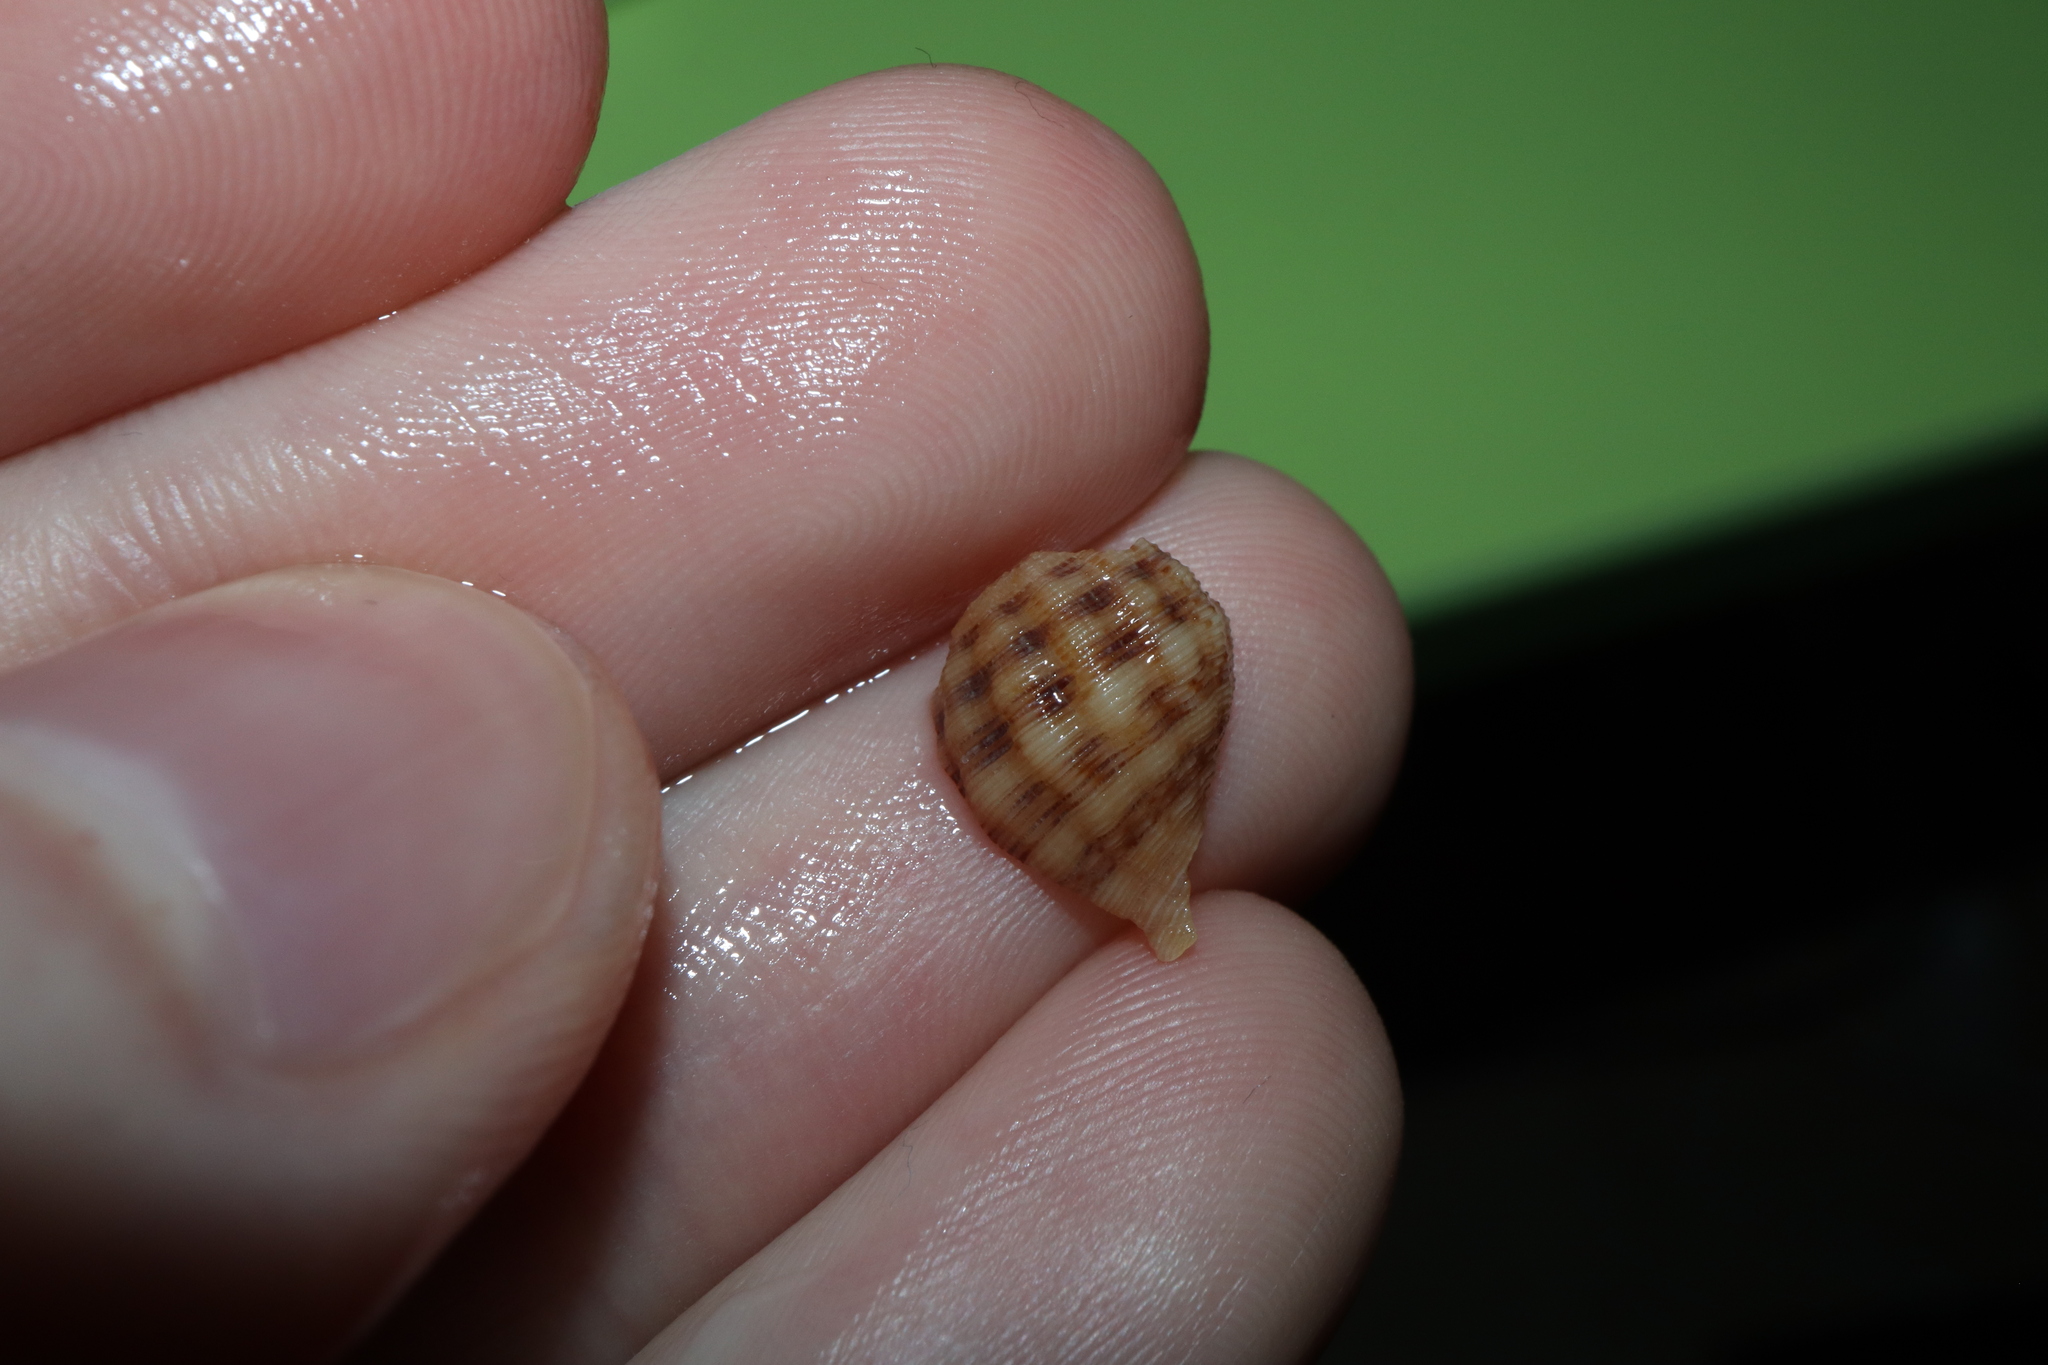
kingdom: Animalia
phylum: Mollusca
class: Gastropoda
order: Neogastropoda
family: Muricidae
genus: Agnewia
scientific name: Agnewia tritoniformis
